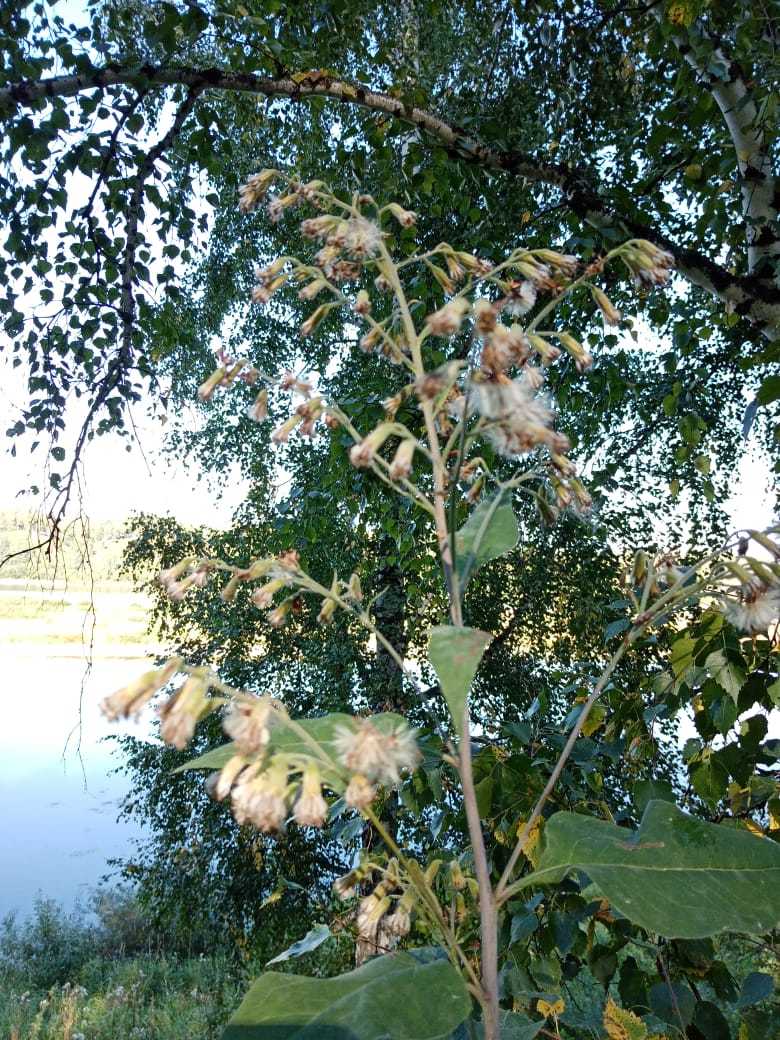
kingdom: Plantae
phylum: Tracheophyta
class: Magnoliopsida
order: Asterales
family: Asteraceae
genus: Parasenecio
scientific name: Parasenecio hastatus
